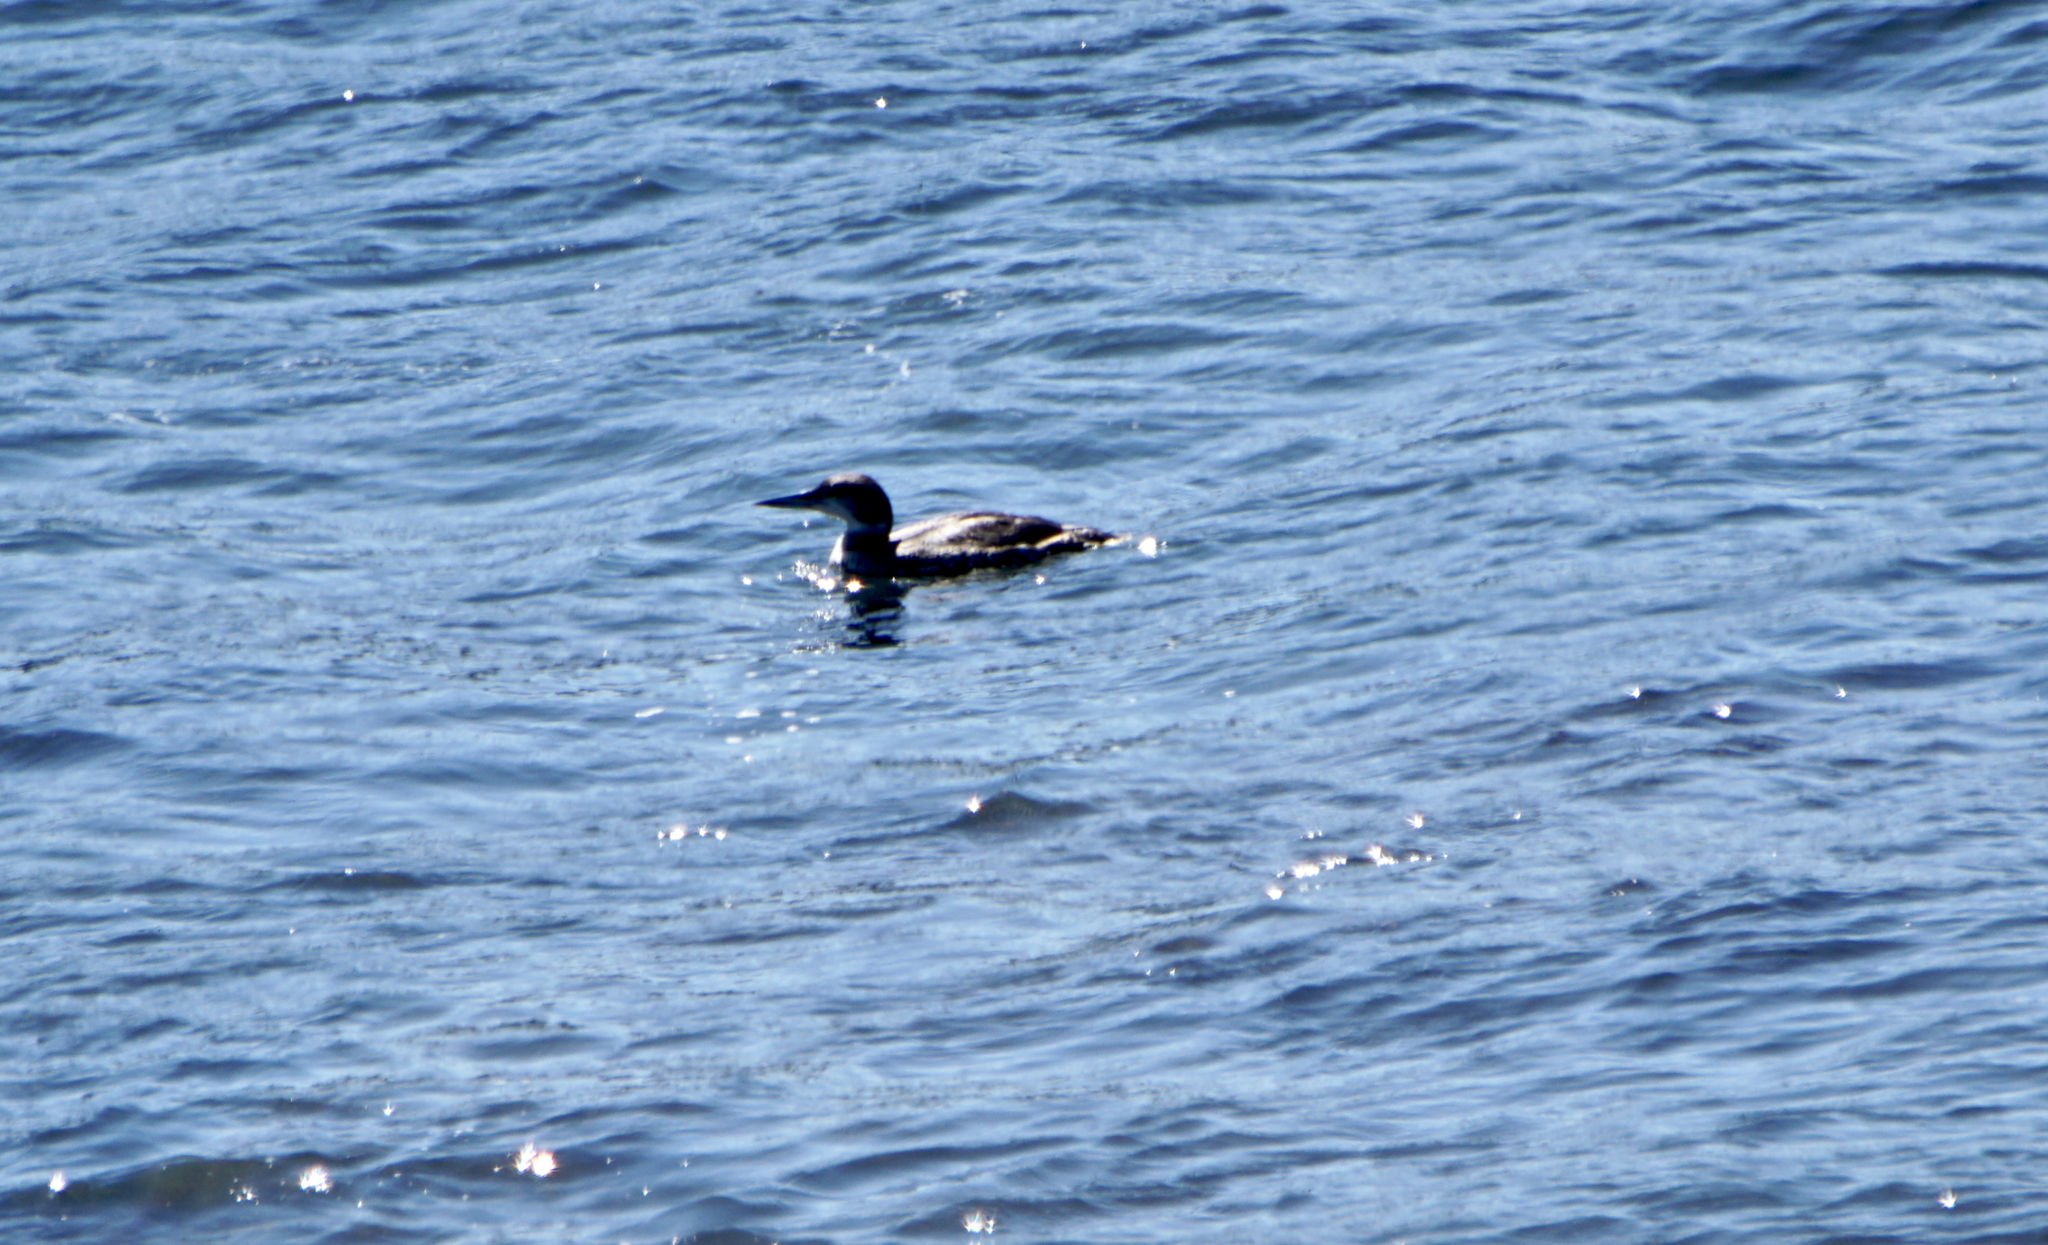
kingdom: Animalia
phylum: Chordata
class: Aves
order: Gaviiformes
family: Gaviidae
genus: Gavia
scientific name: Gavia immer
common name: Common loon
